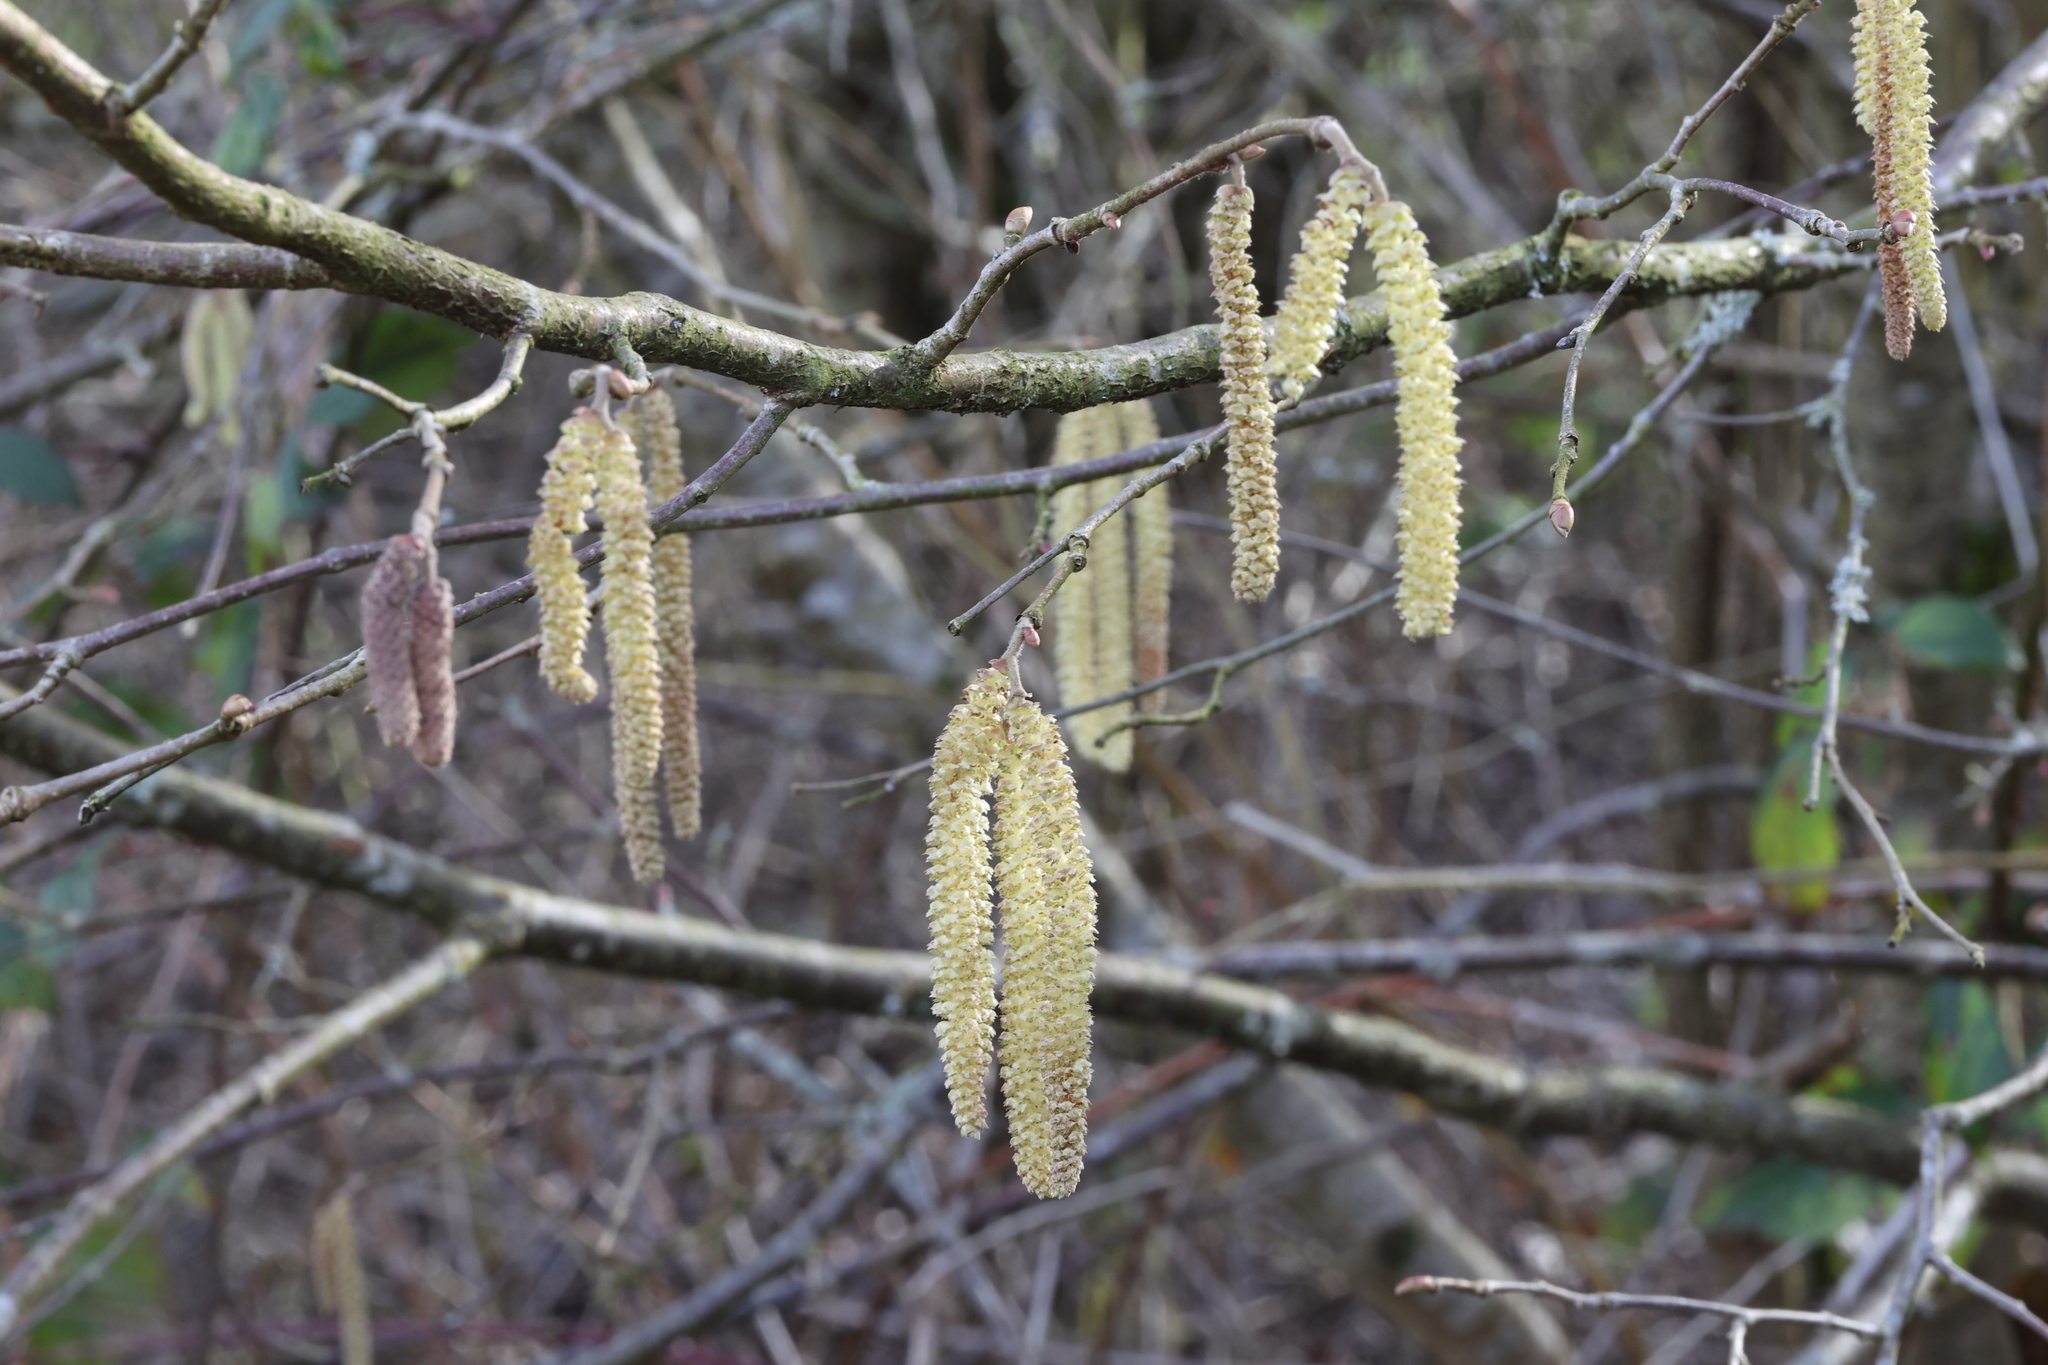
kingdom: Plantae
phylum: Tracheophyta
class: Magnoliopsida
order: Fagales
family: Betulaceae
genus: Corylus
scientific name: Corylus avellana
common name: European hazel
